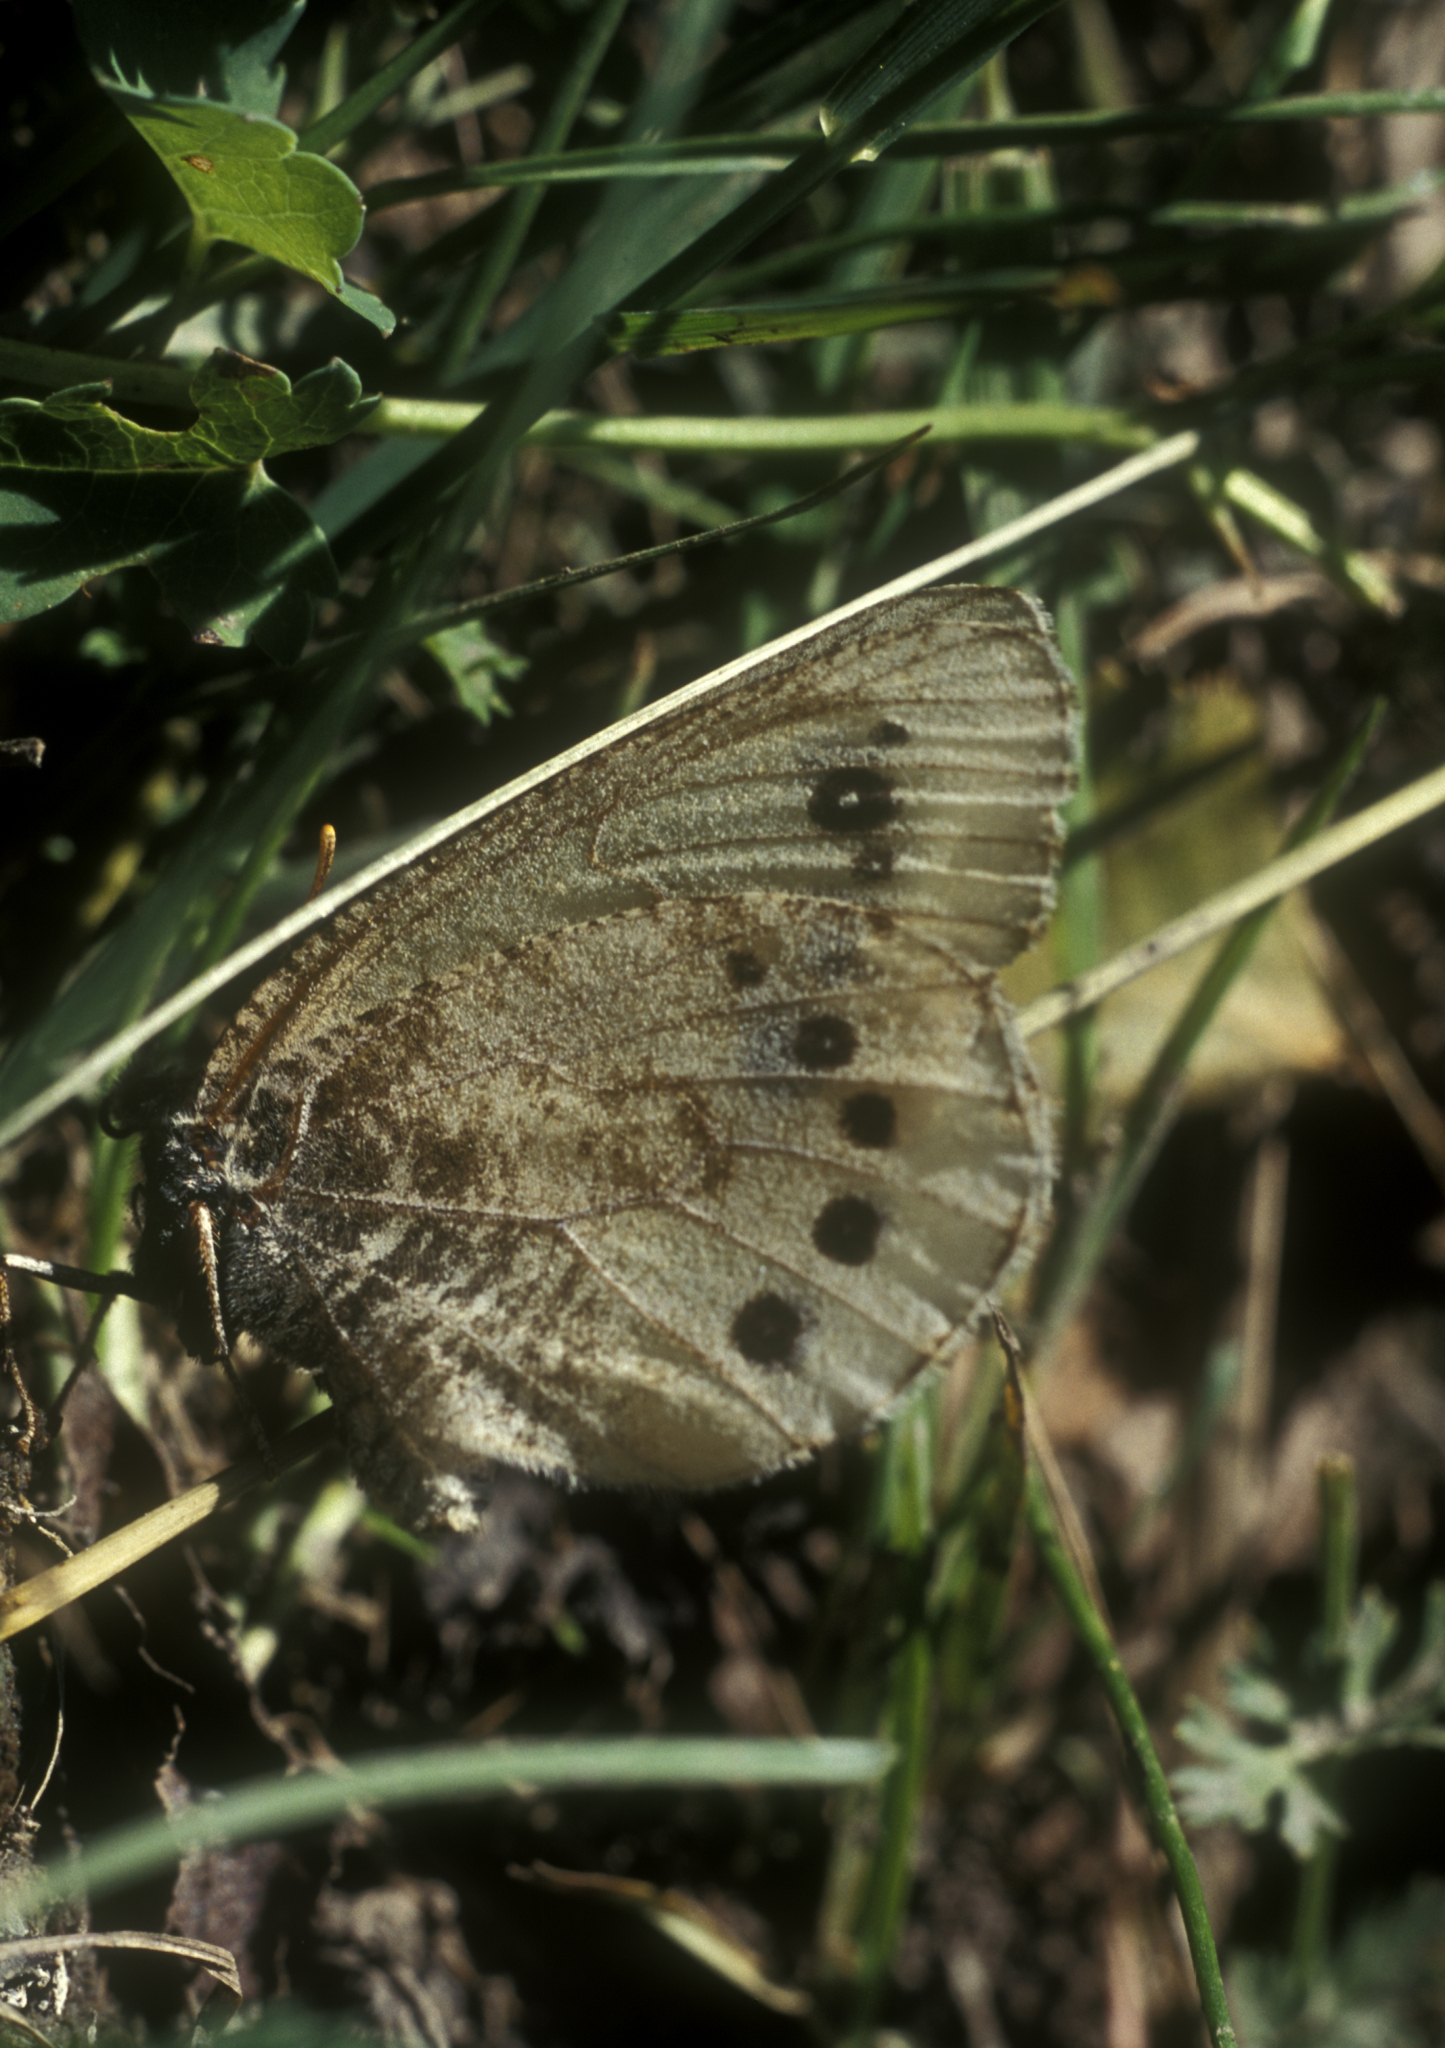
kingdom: Animalia
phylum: Arthropoda
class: Insecta
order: Lepidoptera
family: Nymphalidae
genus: Oeneis
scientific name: Oeneis diluta
